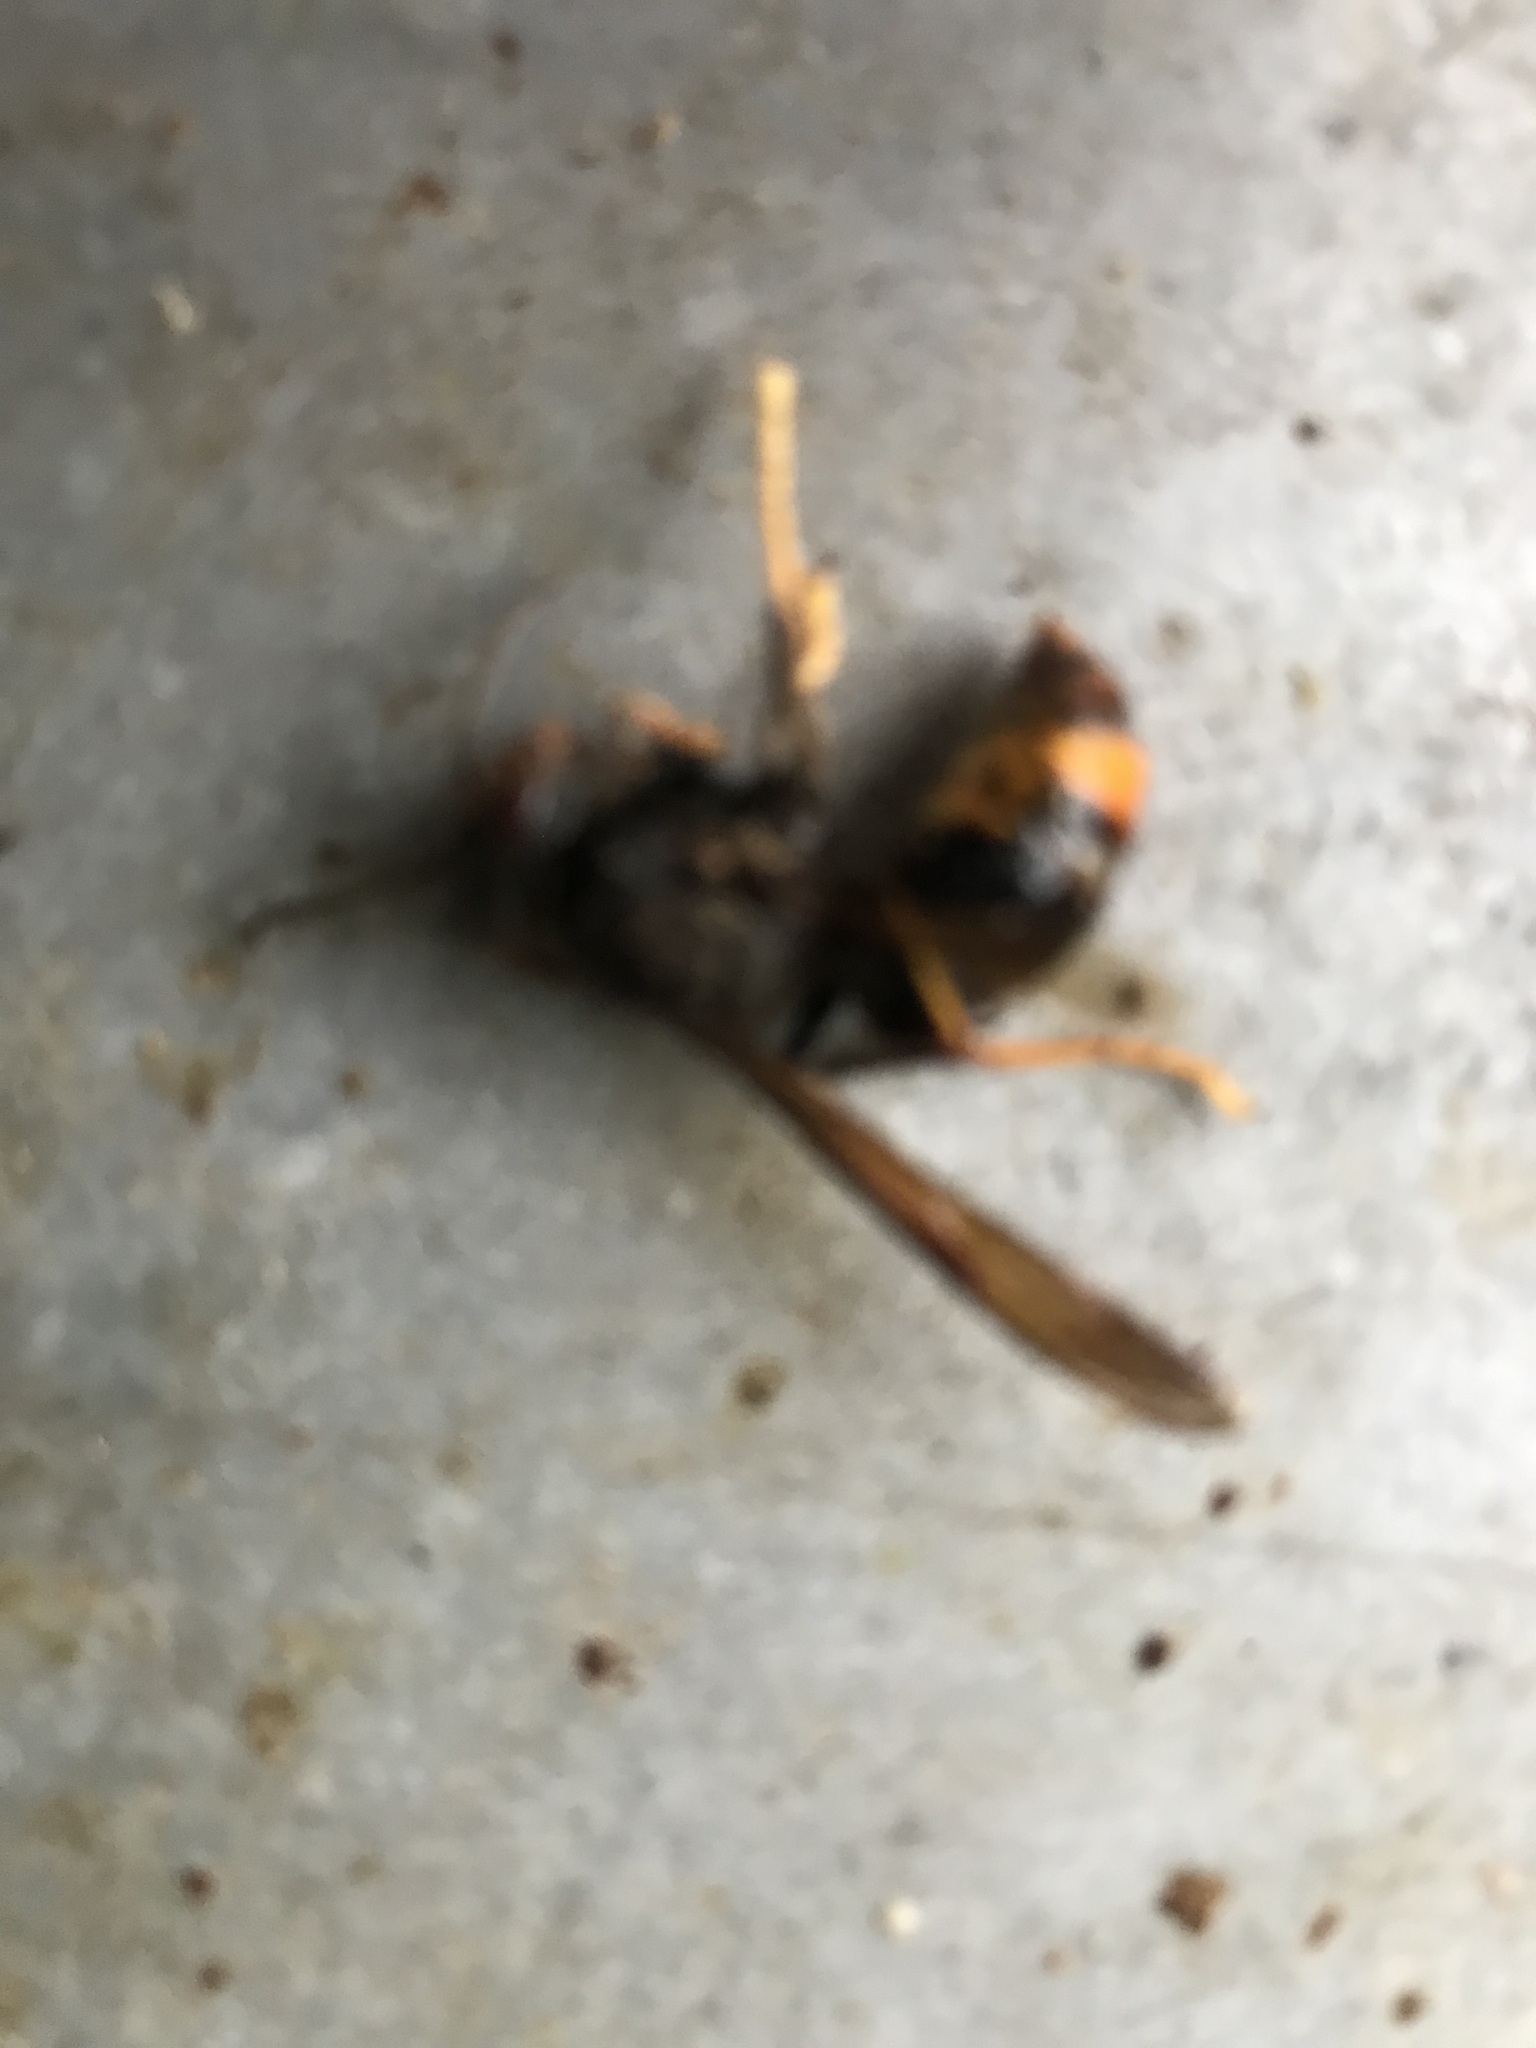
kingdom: Animalia
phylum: Arthropoda
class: Insecta
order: Hymenoptera
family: Vespidae
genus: Vespa
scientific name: Vespa velutina
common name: Asian hornet
